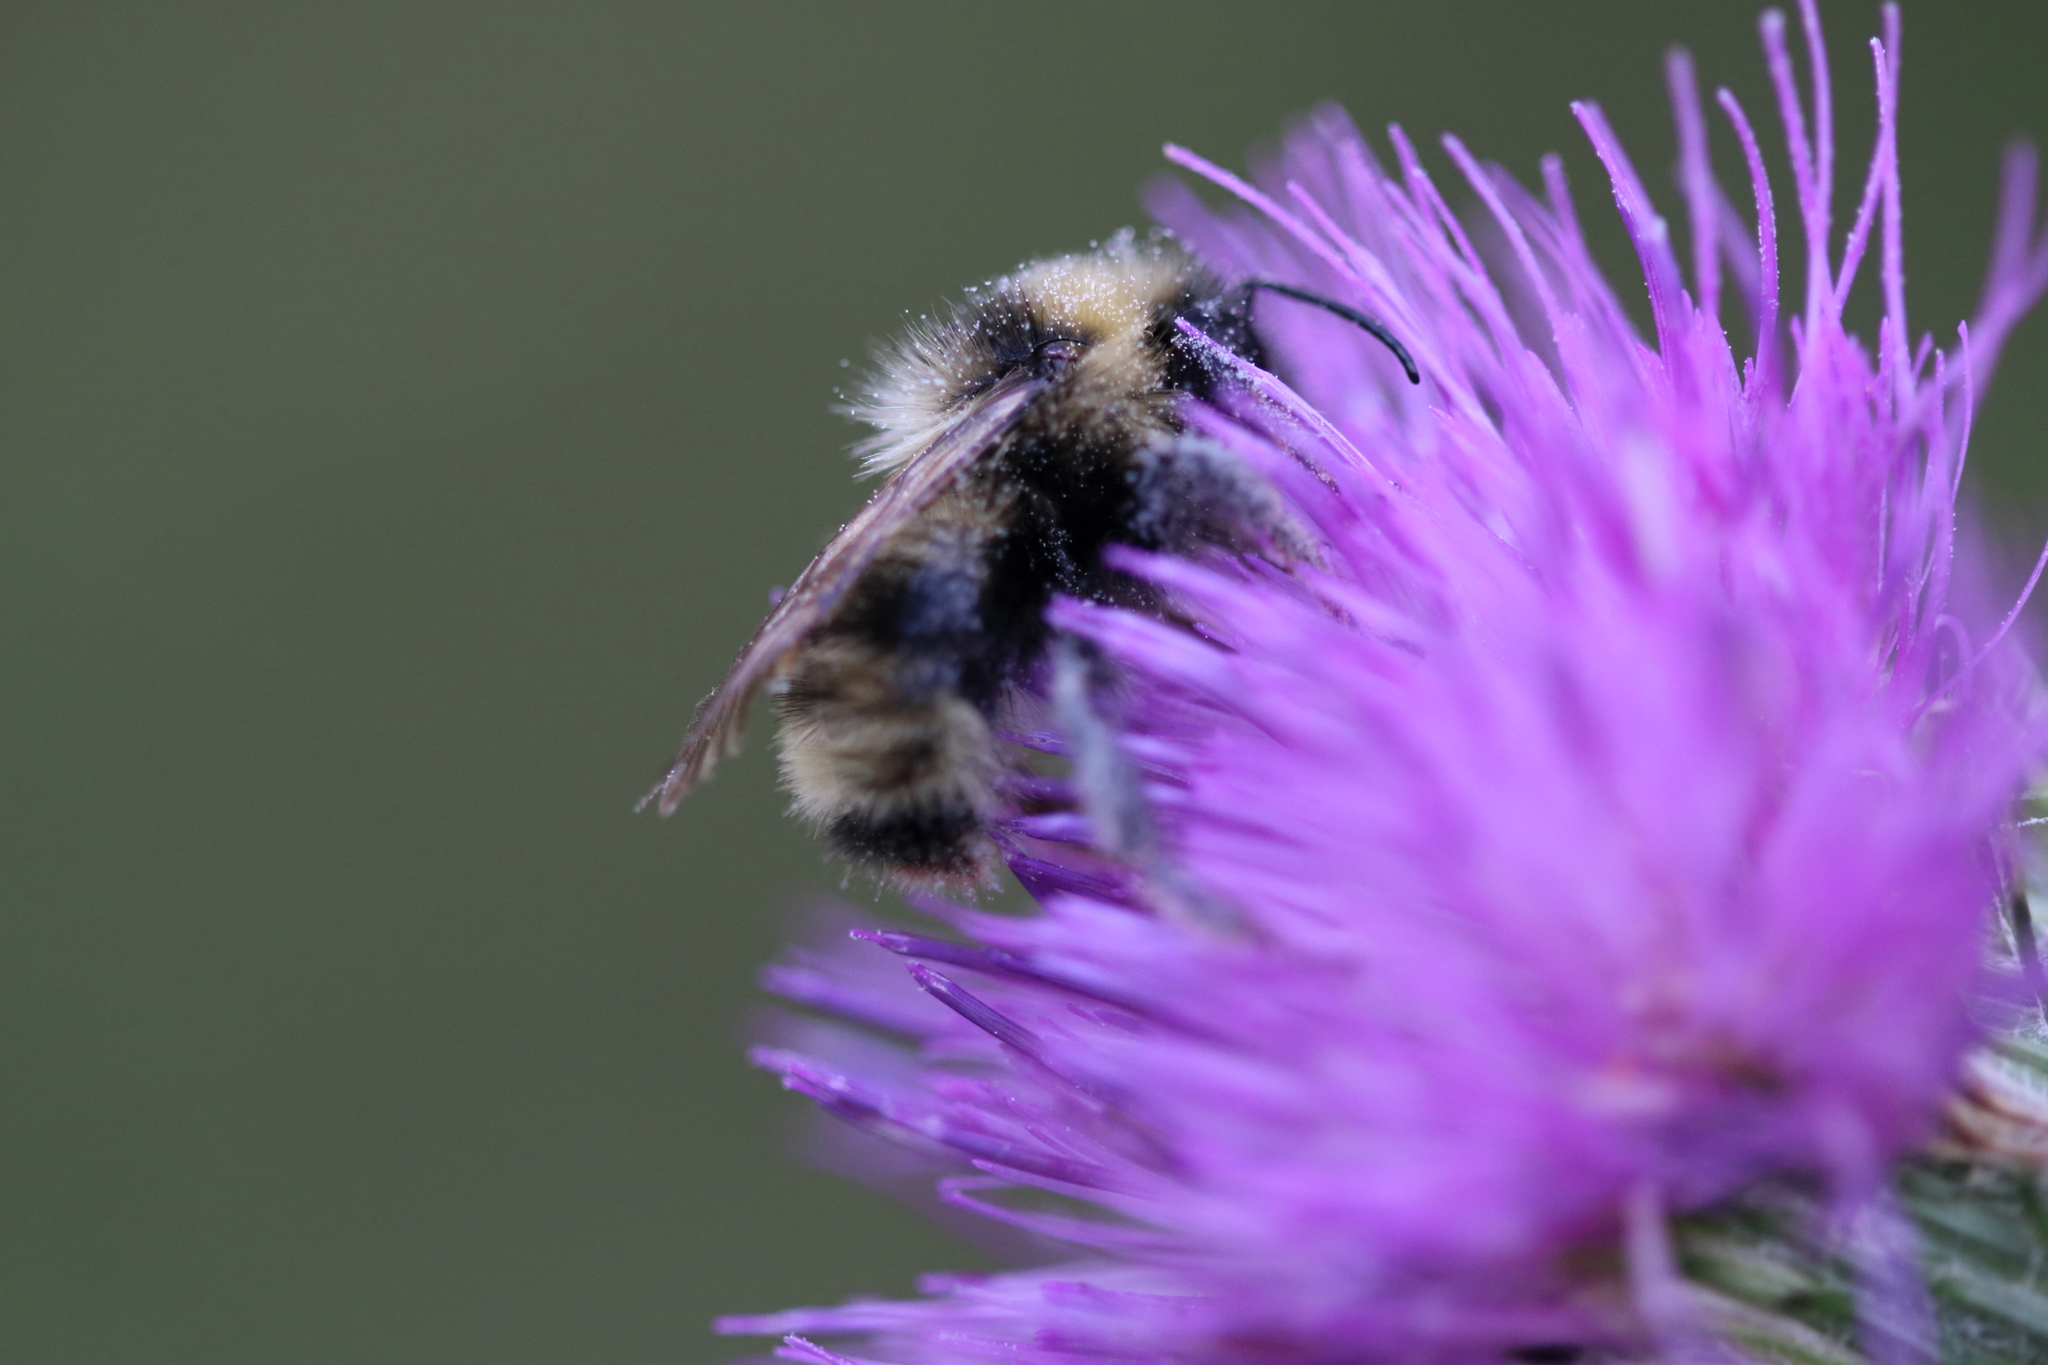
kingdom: Animalia
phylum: Arthropoda
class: Insecta
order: Hymenoptera
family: Apidae
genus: Bombus
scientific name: Bombus flavidus
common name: Fernald cuckoo bumble bee
